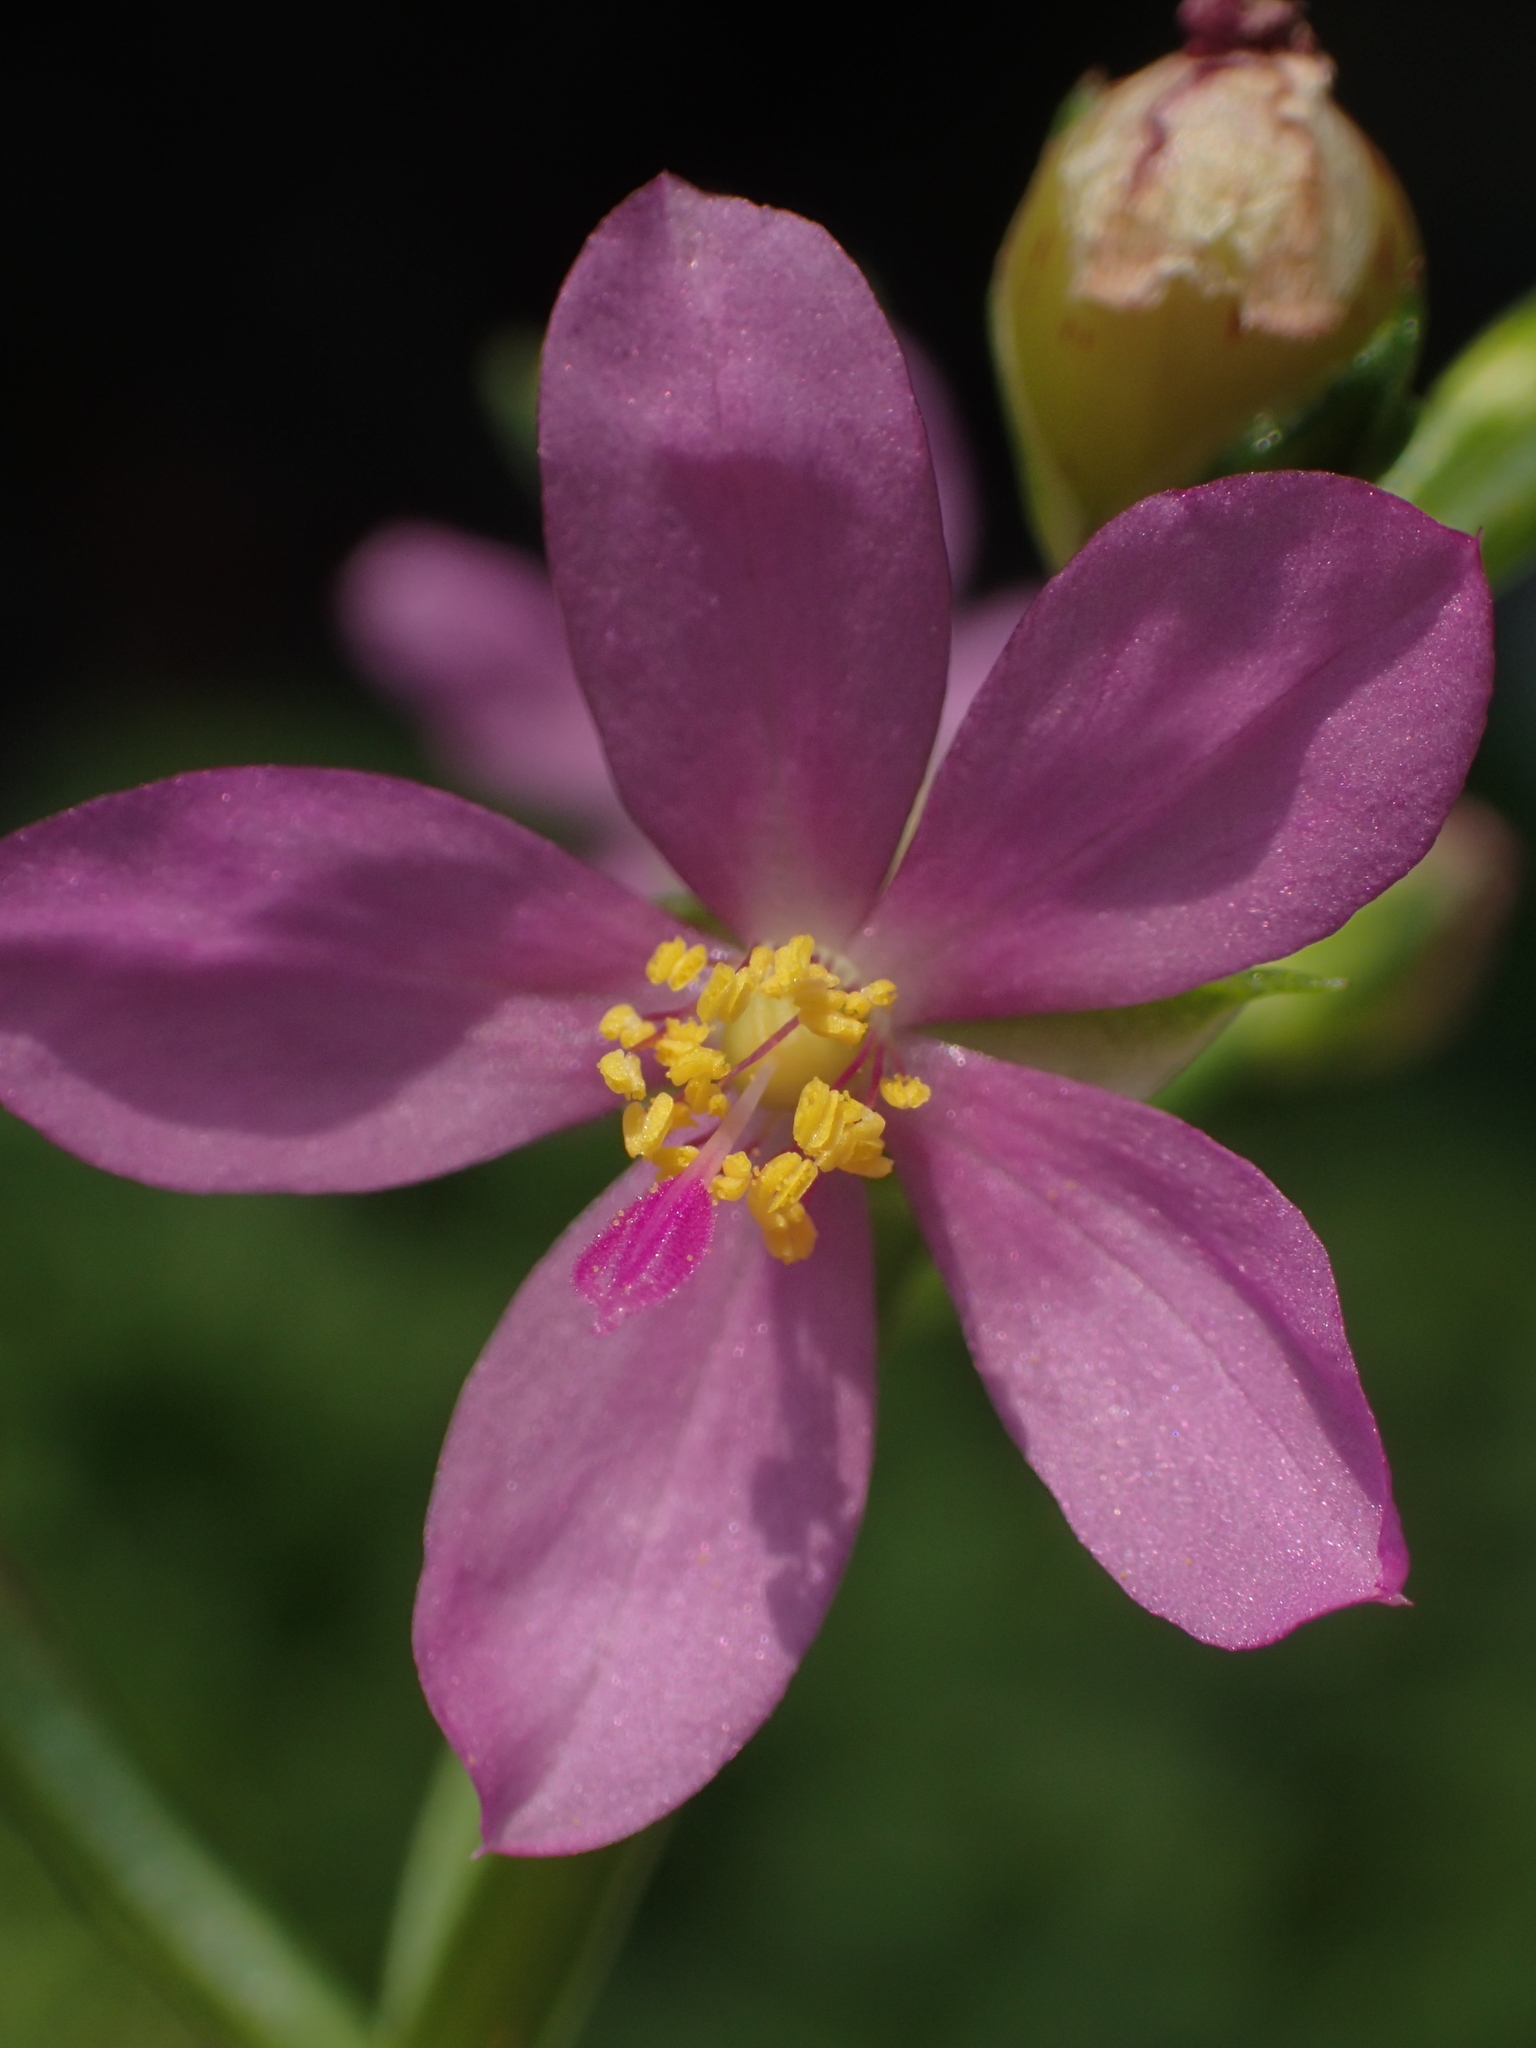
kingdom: Plantae
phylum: Tracheophyta
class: Magnoliopsida
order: Caryophyllales
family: Talinaceae
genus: Talinum
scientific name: Talinum fruticosum
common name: Verdolaga-francesa
